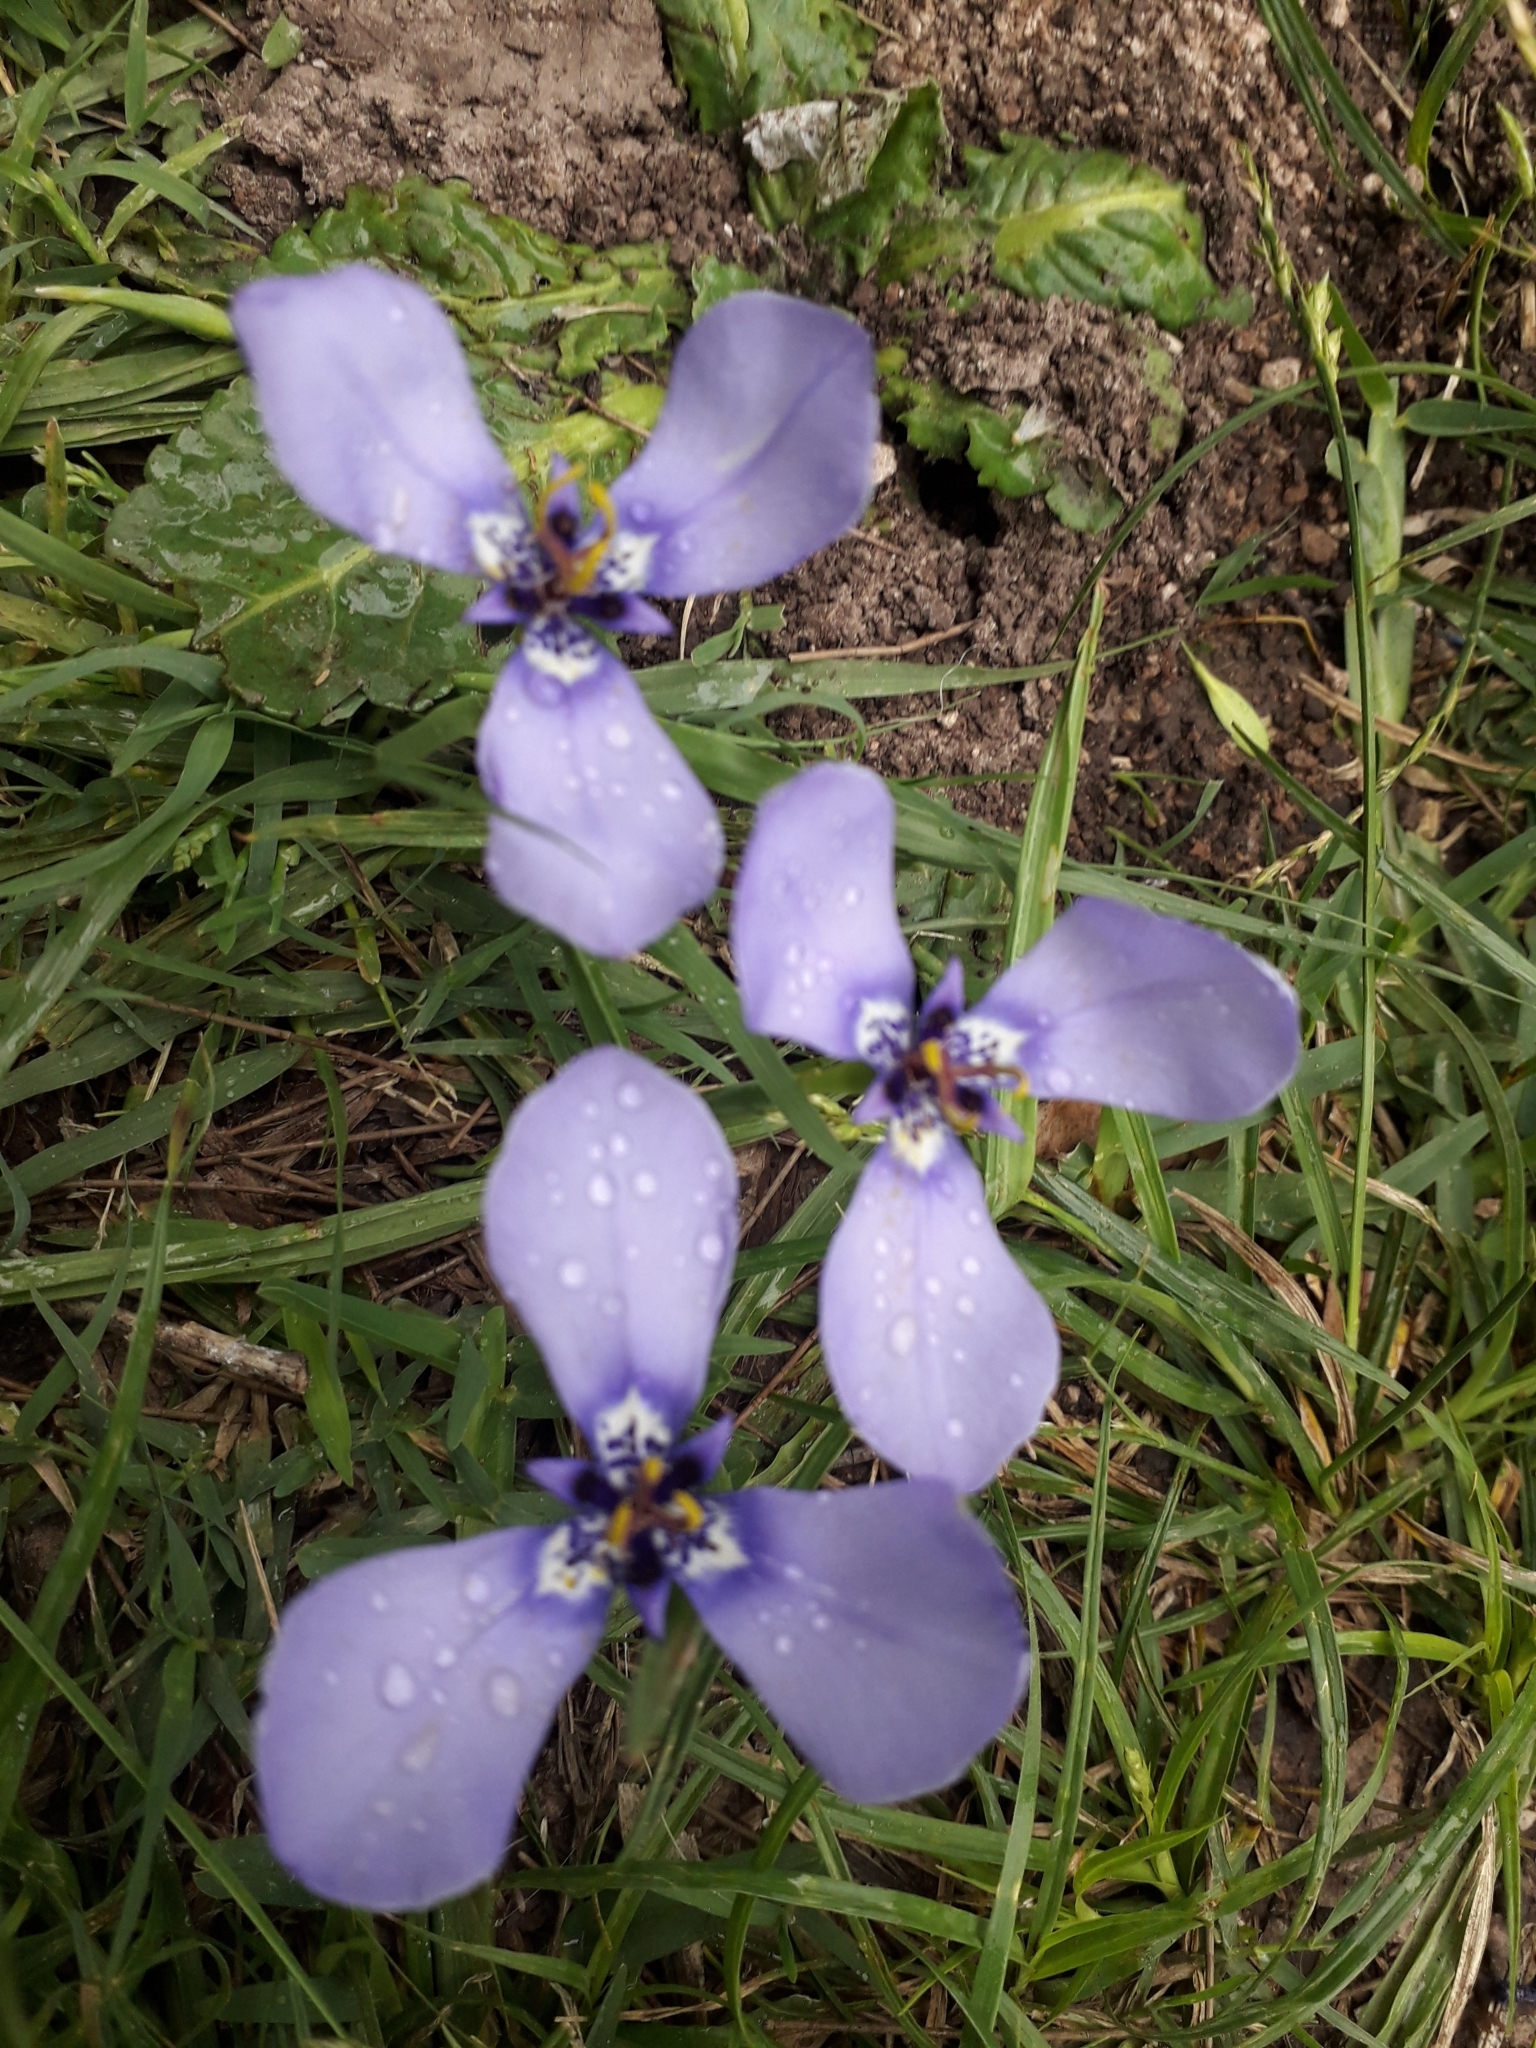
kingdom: Plantae
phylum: Tracheophyta
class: Liliopsida
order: Asparagales
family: Iridaceae
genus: Herbertia
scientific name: Herbertia lahue
